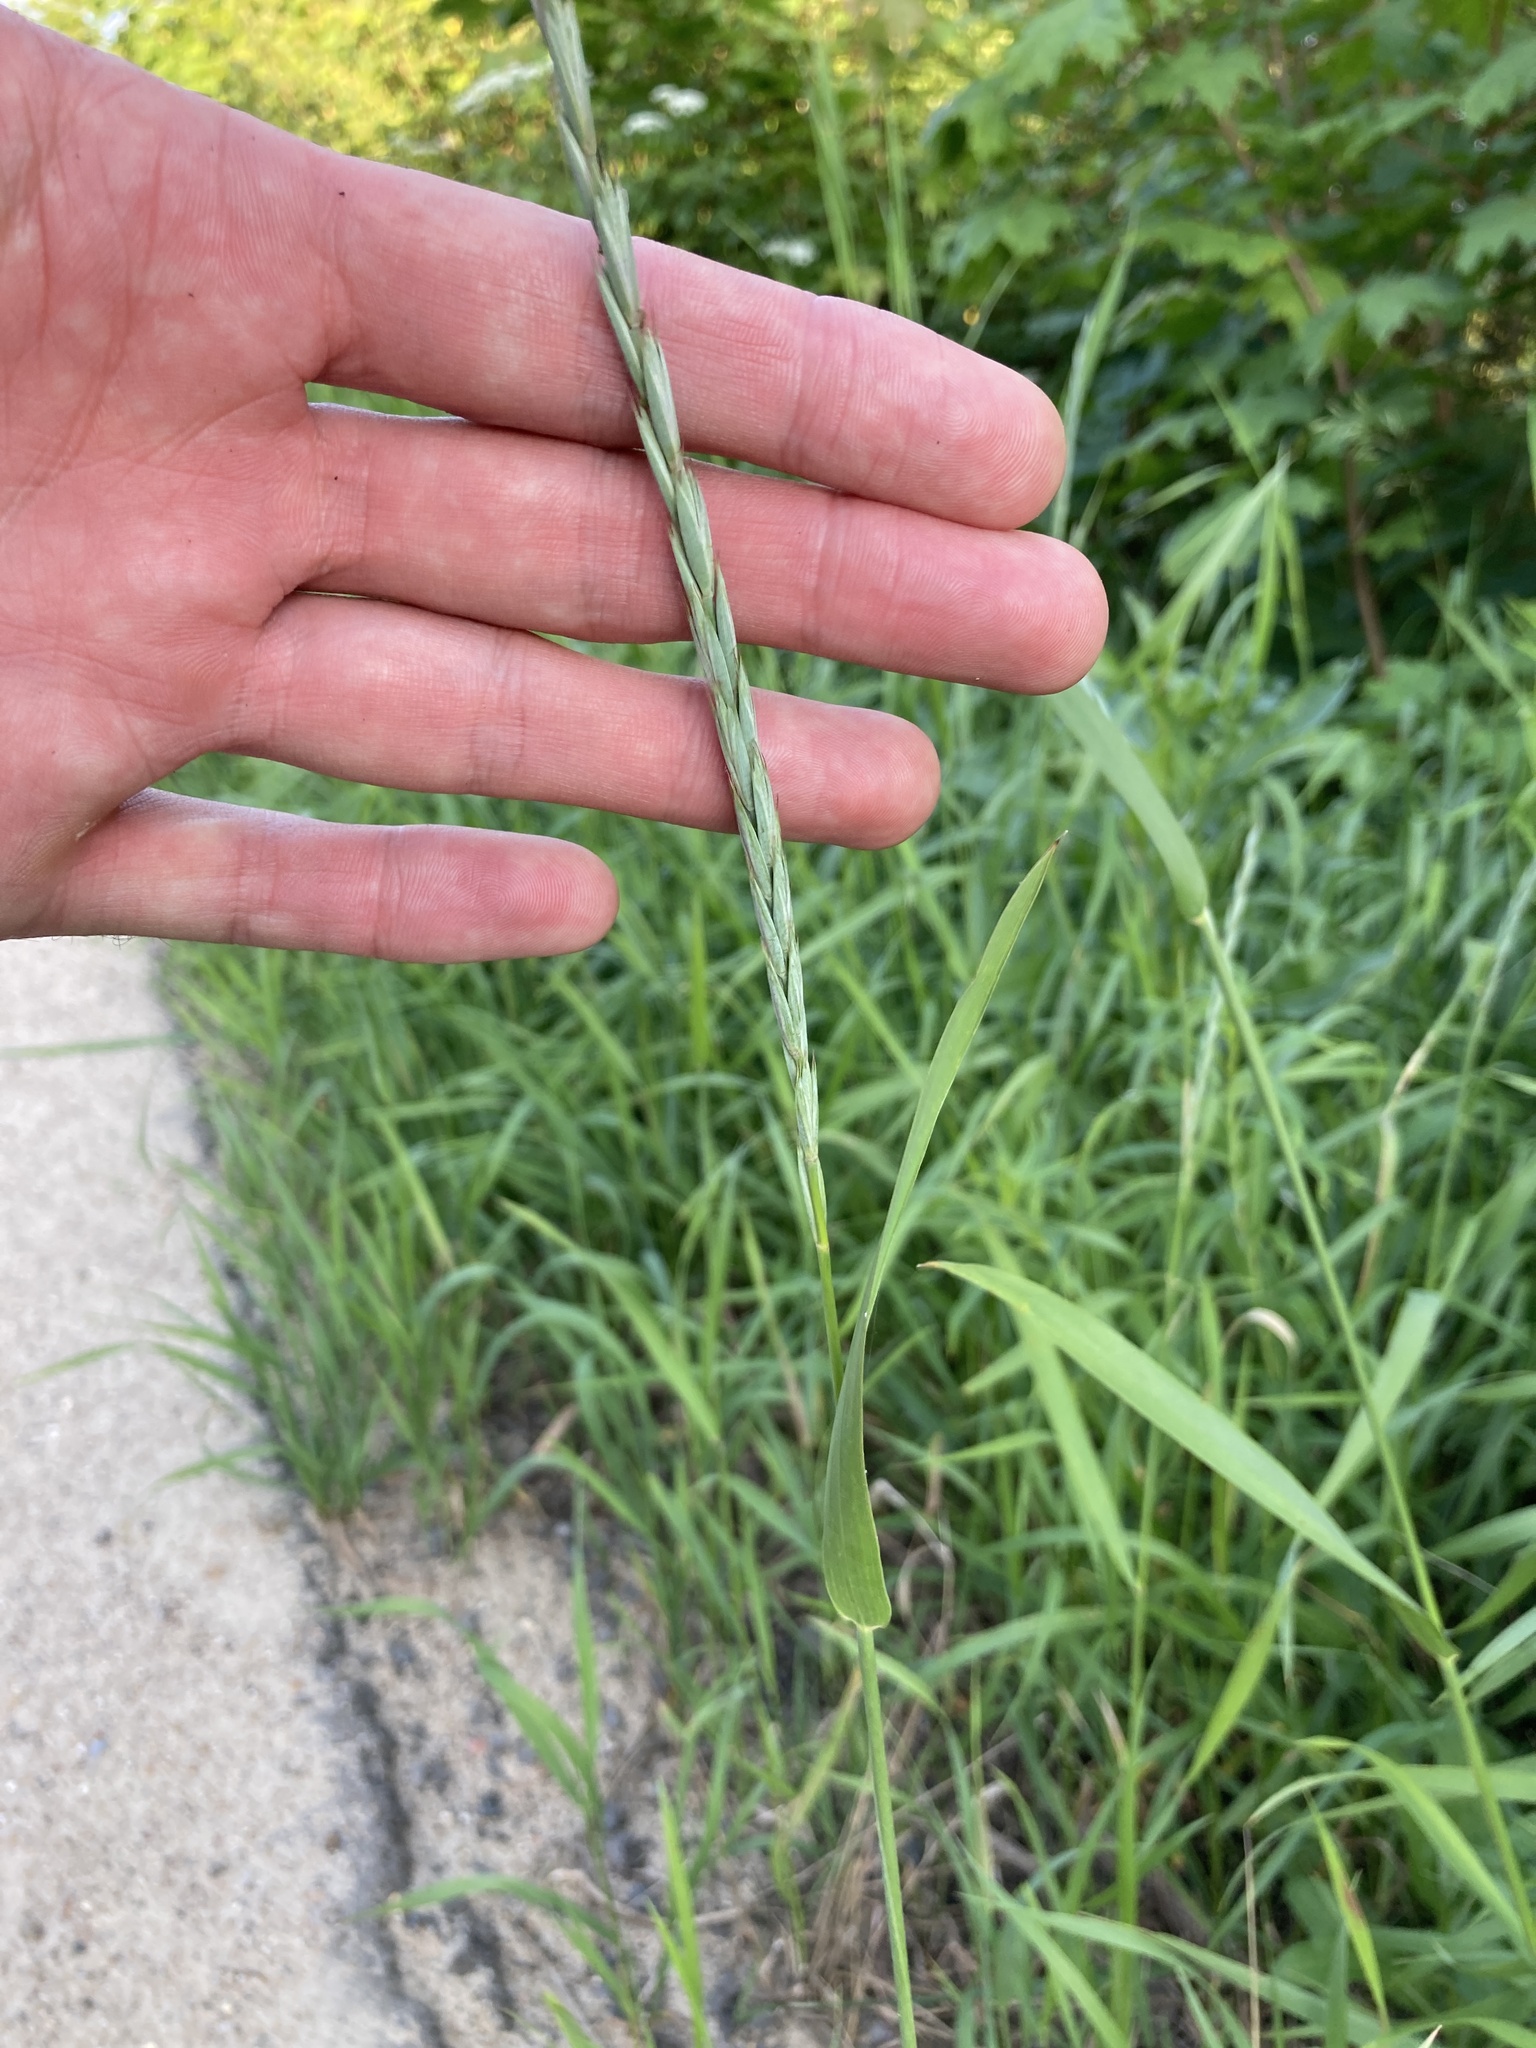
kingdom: Plantae
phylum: Tracheophyta
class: Liliopsida
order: Poales
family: Poaceae
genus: Elymus
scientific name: Elymus repens
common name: Quackgrass
